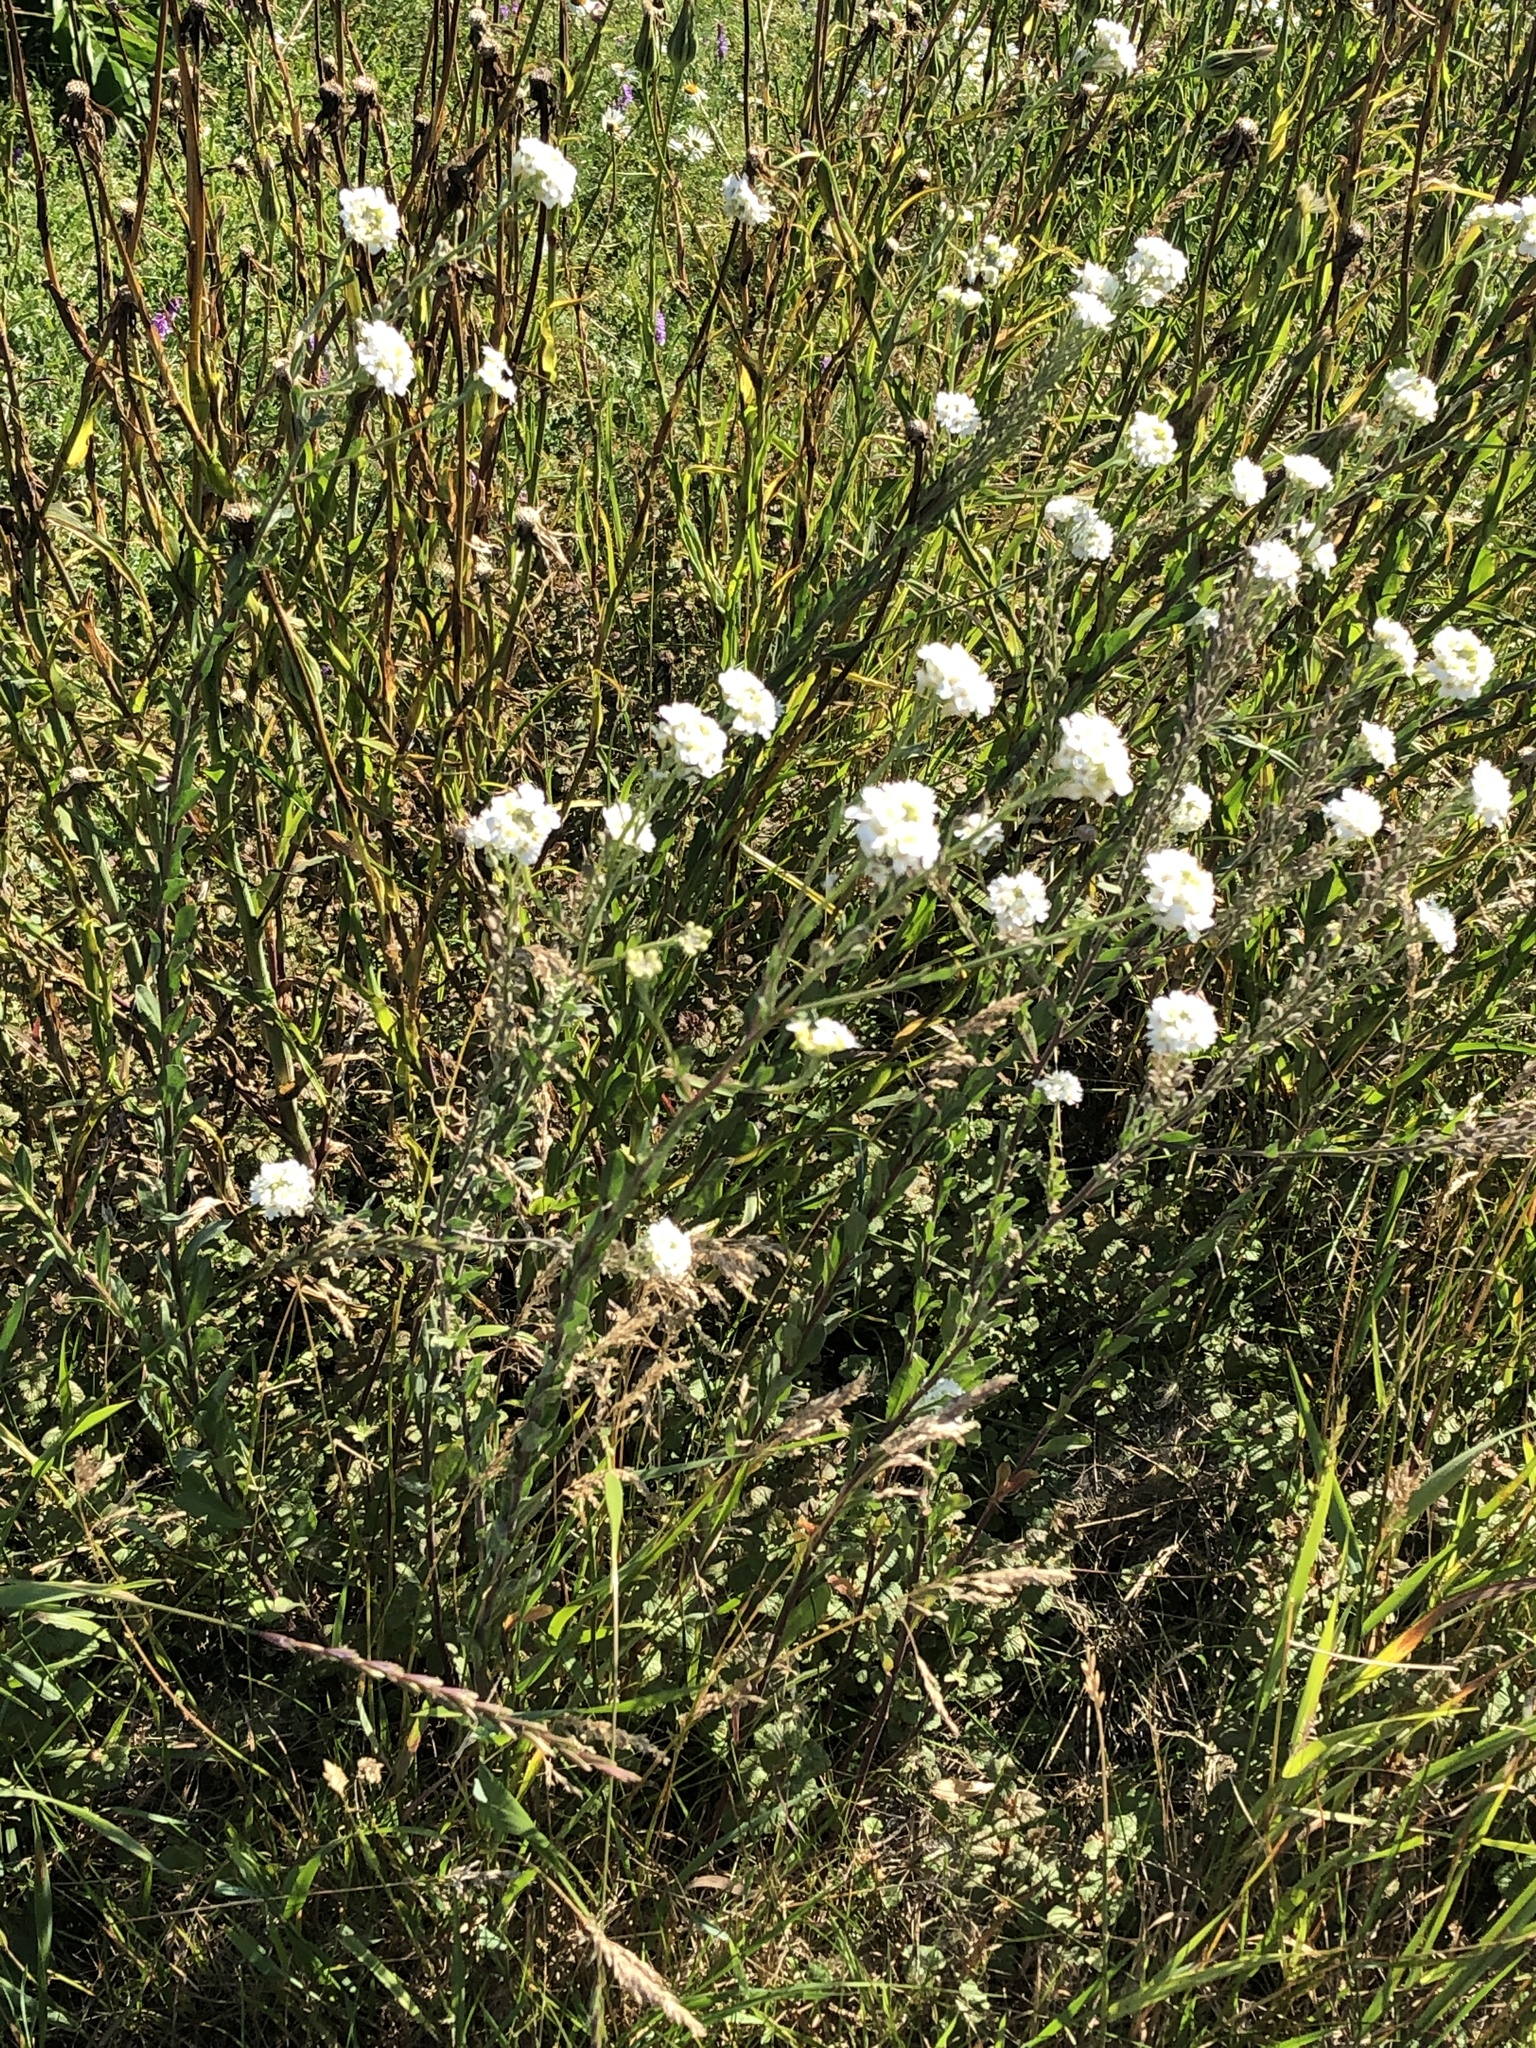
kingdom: Plantae
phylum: Tracheophyta
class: Magnoliopsida
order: Brassicales
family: Brassicaceae
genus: Berteroa
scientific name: Berteroa incana
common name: Hoary alison
